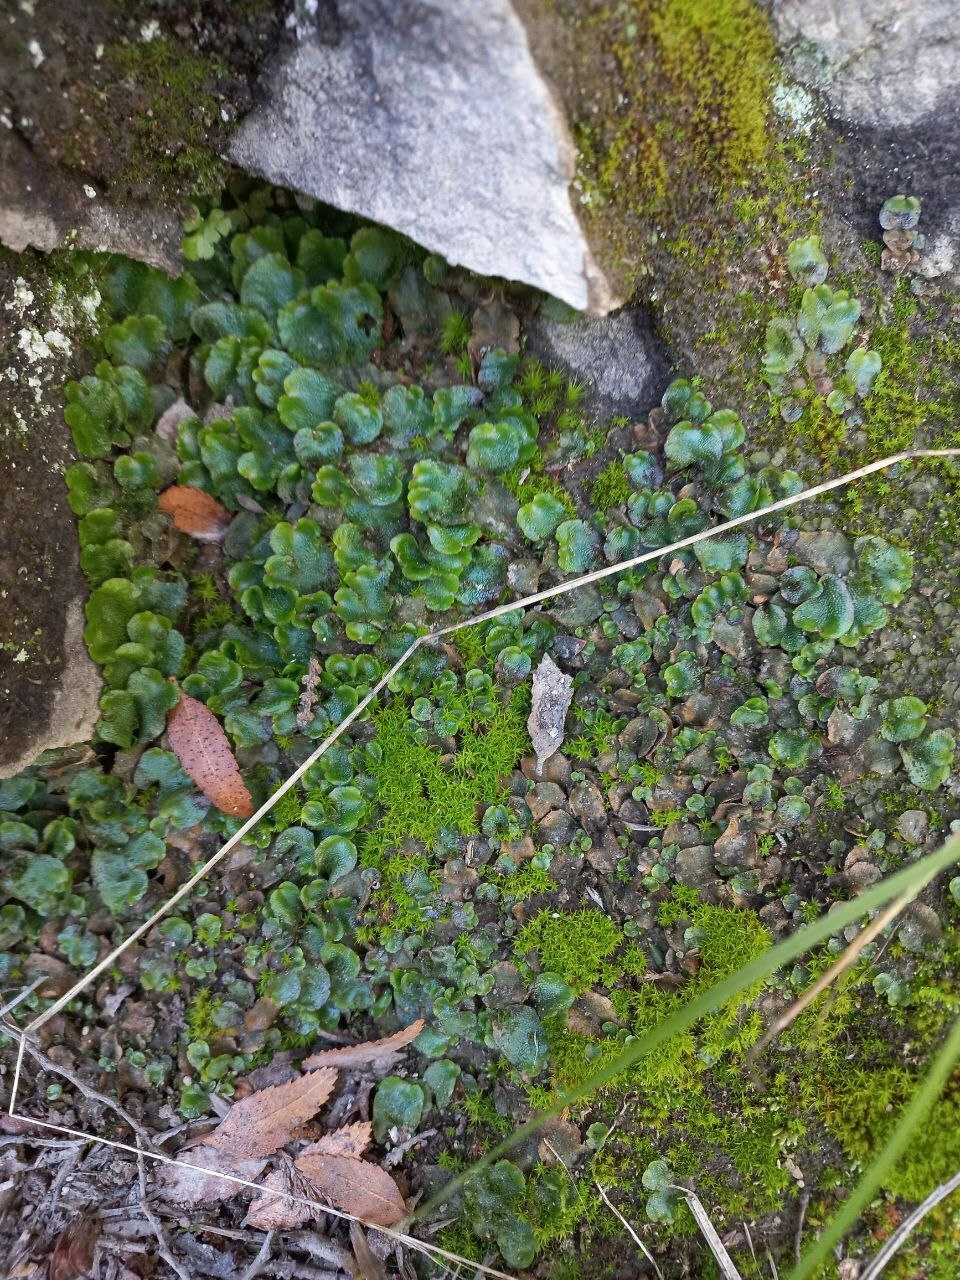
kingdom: Plantae
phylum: Marchantiophyta
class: Marchantiopsida
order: Lunulariales
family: Lunulariaceae
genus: Lunularia
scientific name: Lunularia cruciata
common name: Crescent-cup liverwort
